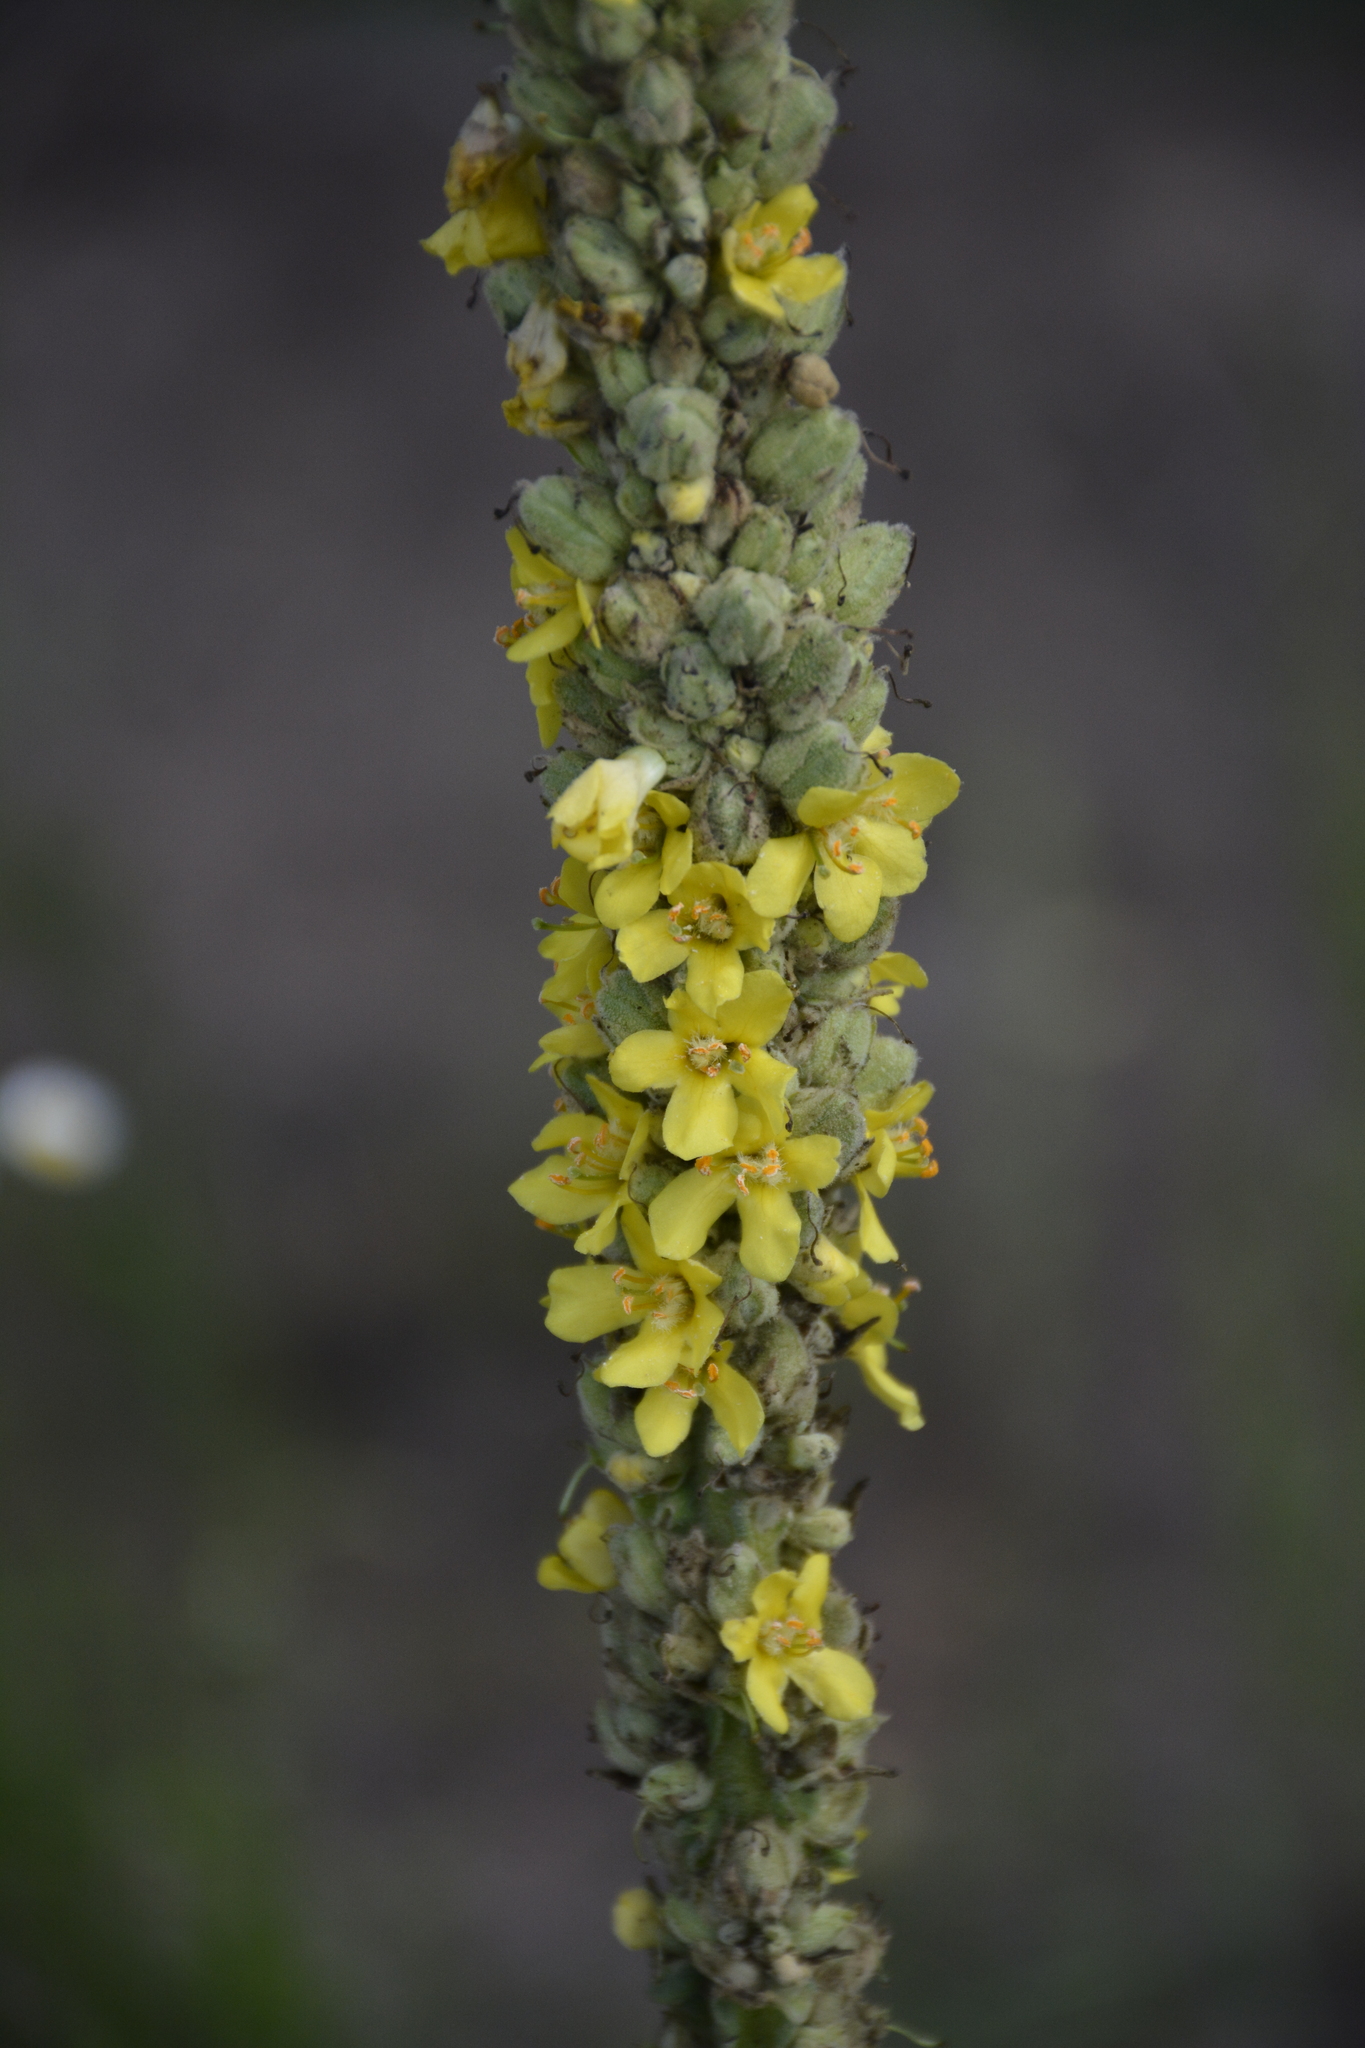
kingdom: Plantae
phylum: Tracheophyta
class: Magnoliopsida
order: Lamiales
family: Scrophulariaceae
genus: Verbascum
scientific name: Verbascum thapsus
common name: Common mullein
